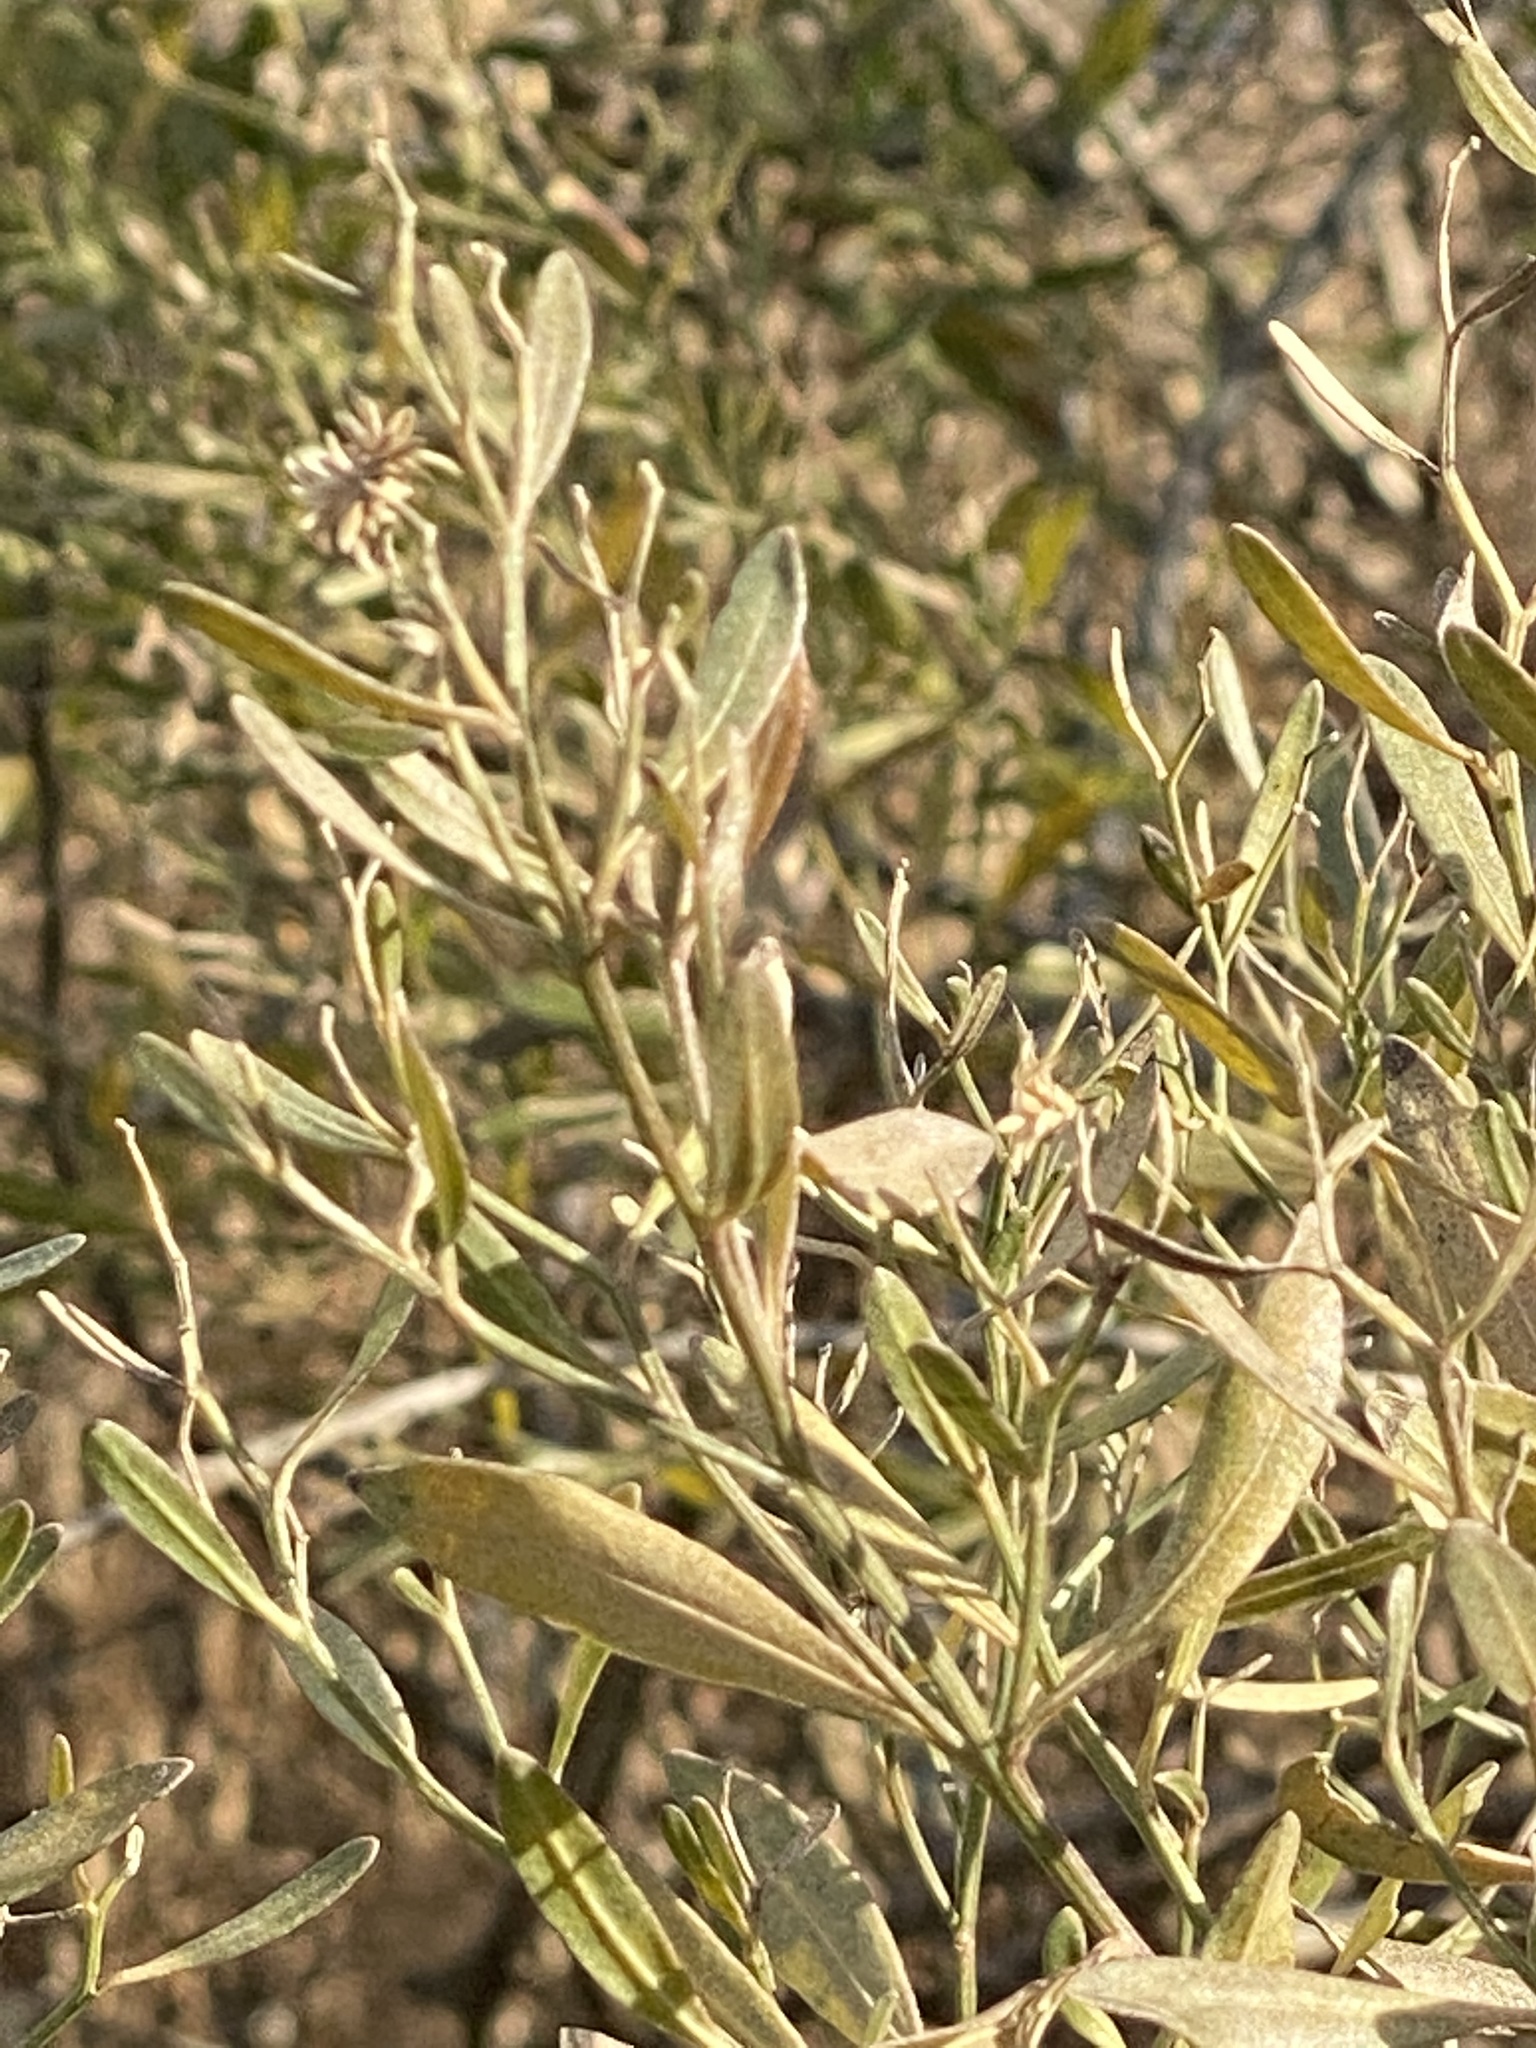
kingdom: Plantae
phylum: Tracheophyta
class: Magnoliopsida
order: Asterales
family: Asteraceae
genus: Baccharis
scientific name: Baccharis halimifolia
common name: Eastern baccharis
